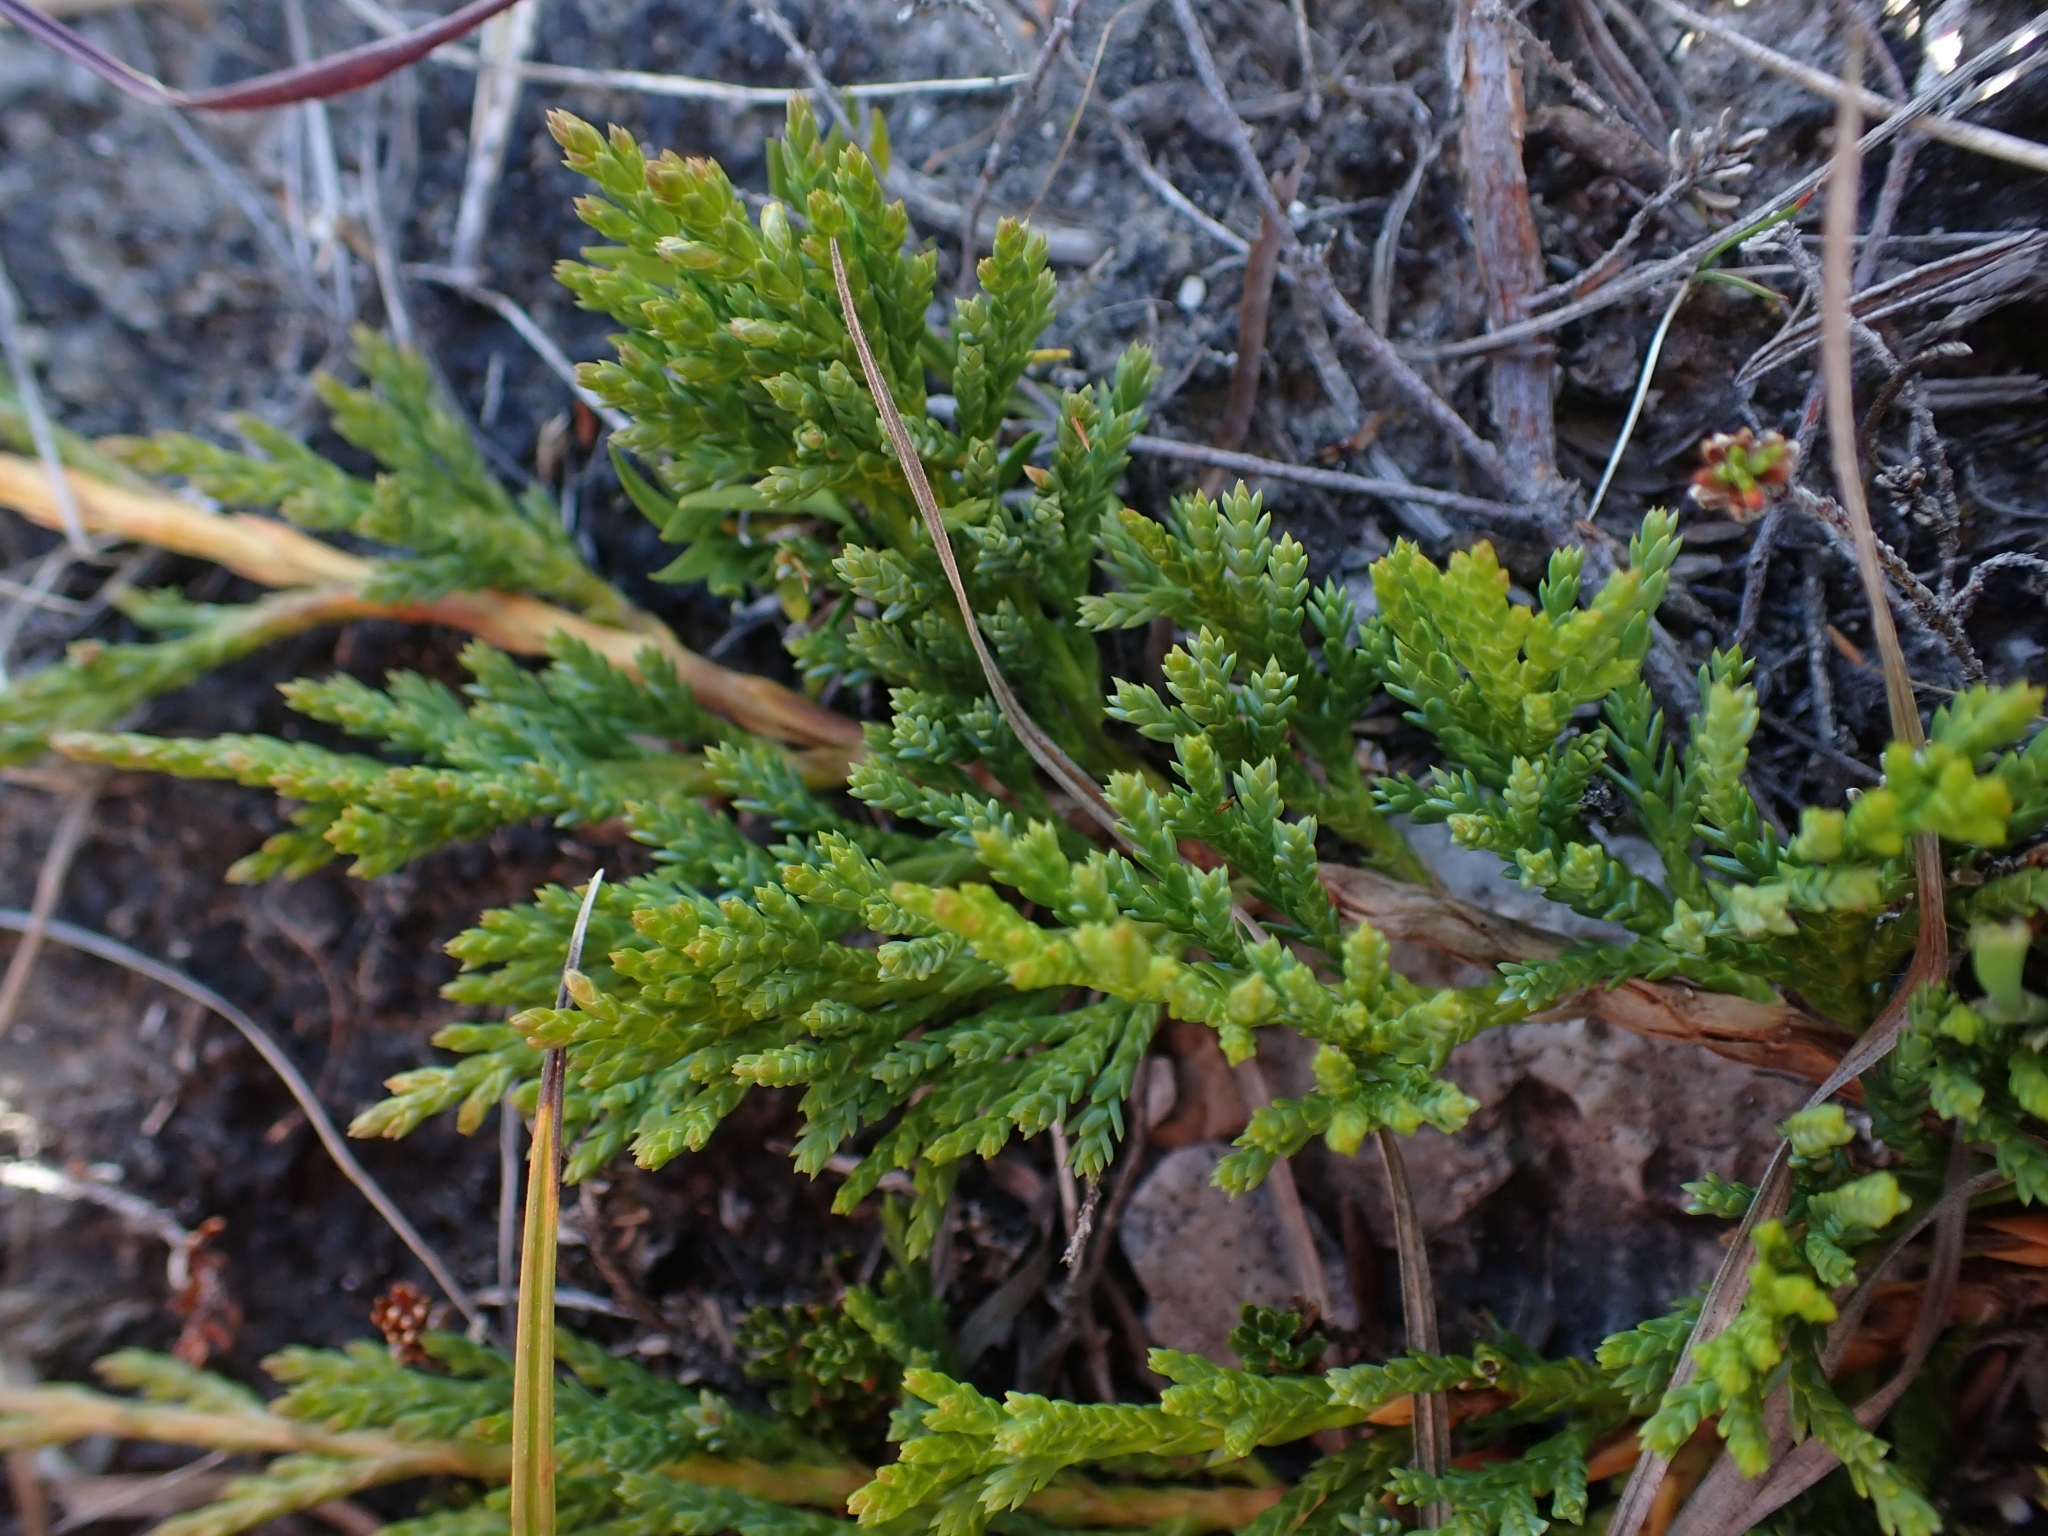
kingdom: Plantae
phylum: Tracheophyta
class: Pinopsida
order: Pinales
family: Cupressaceae
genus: Juniperus
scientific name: Juniperus horizontalis
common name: Creeping juniper
